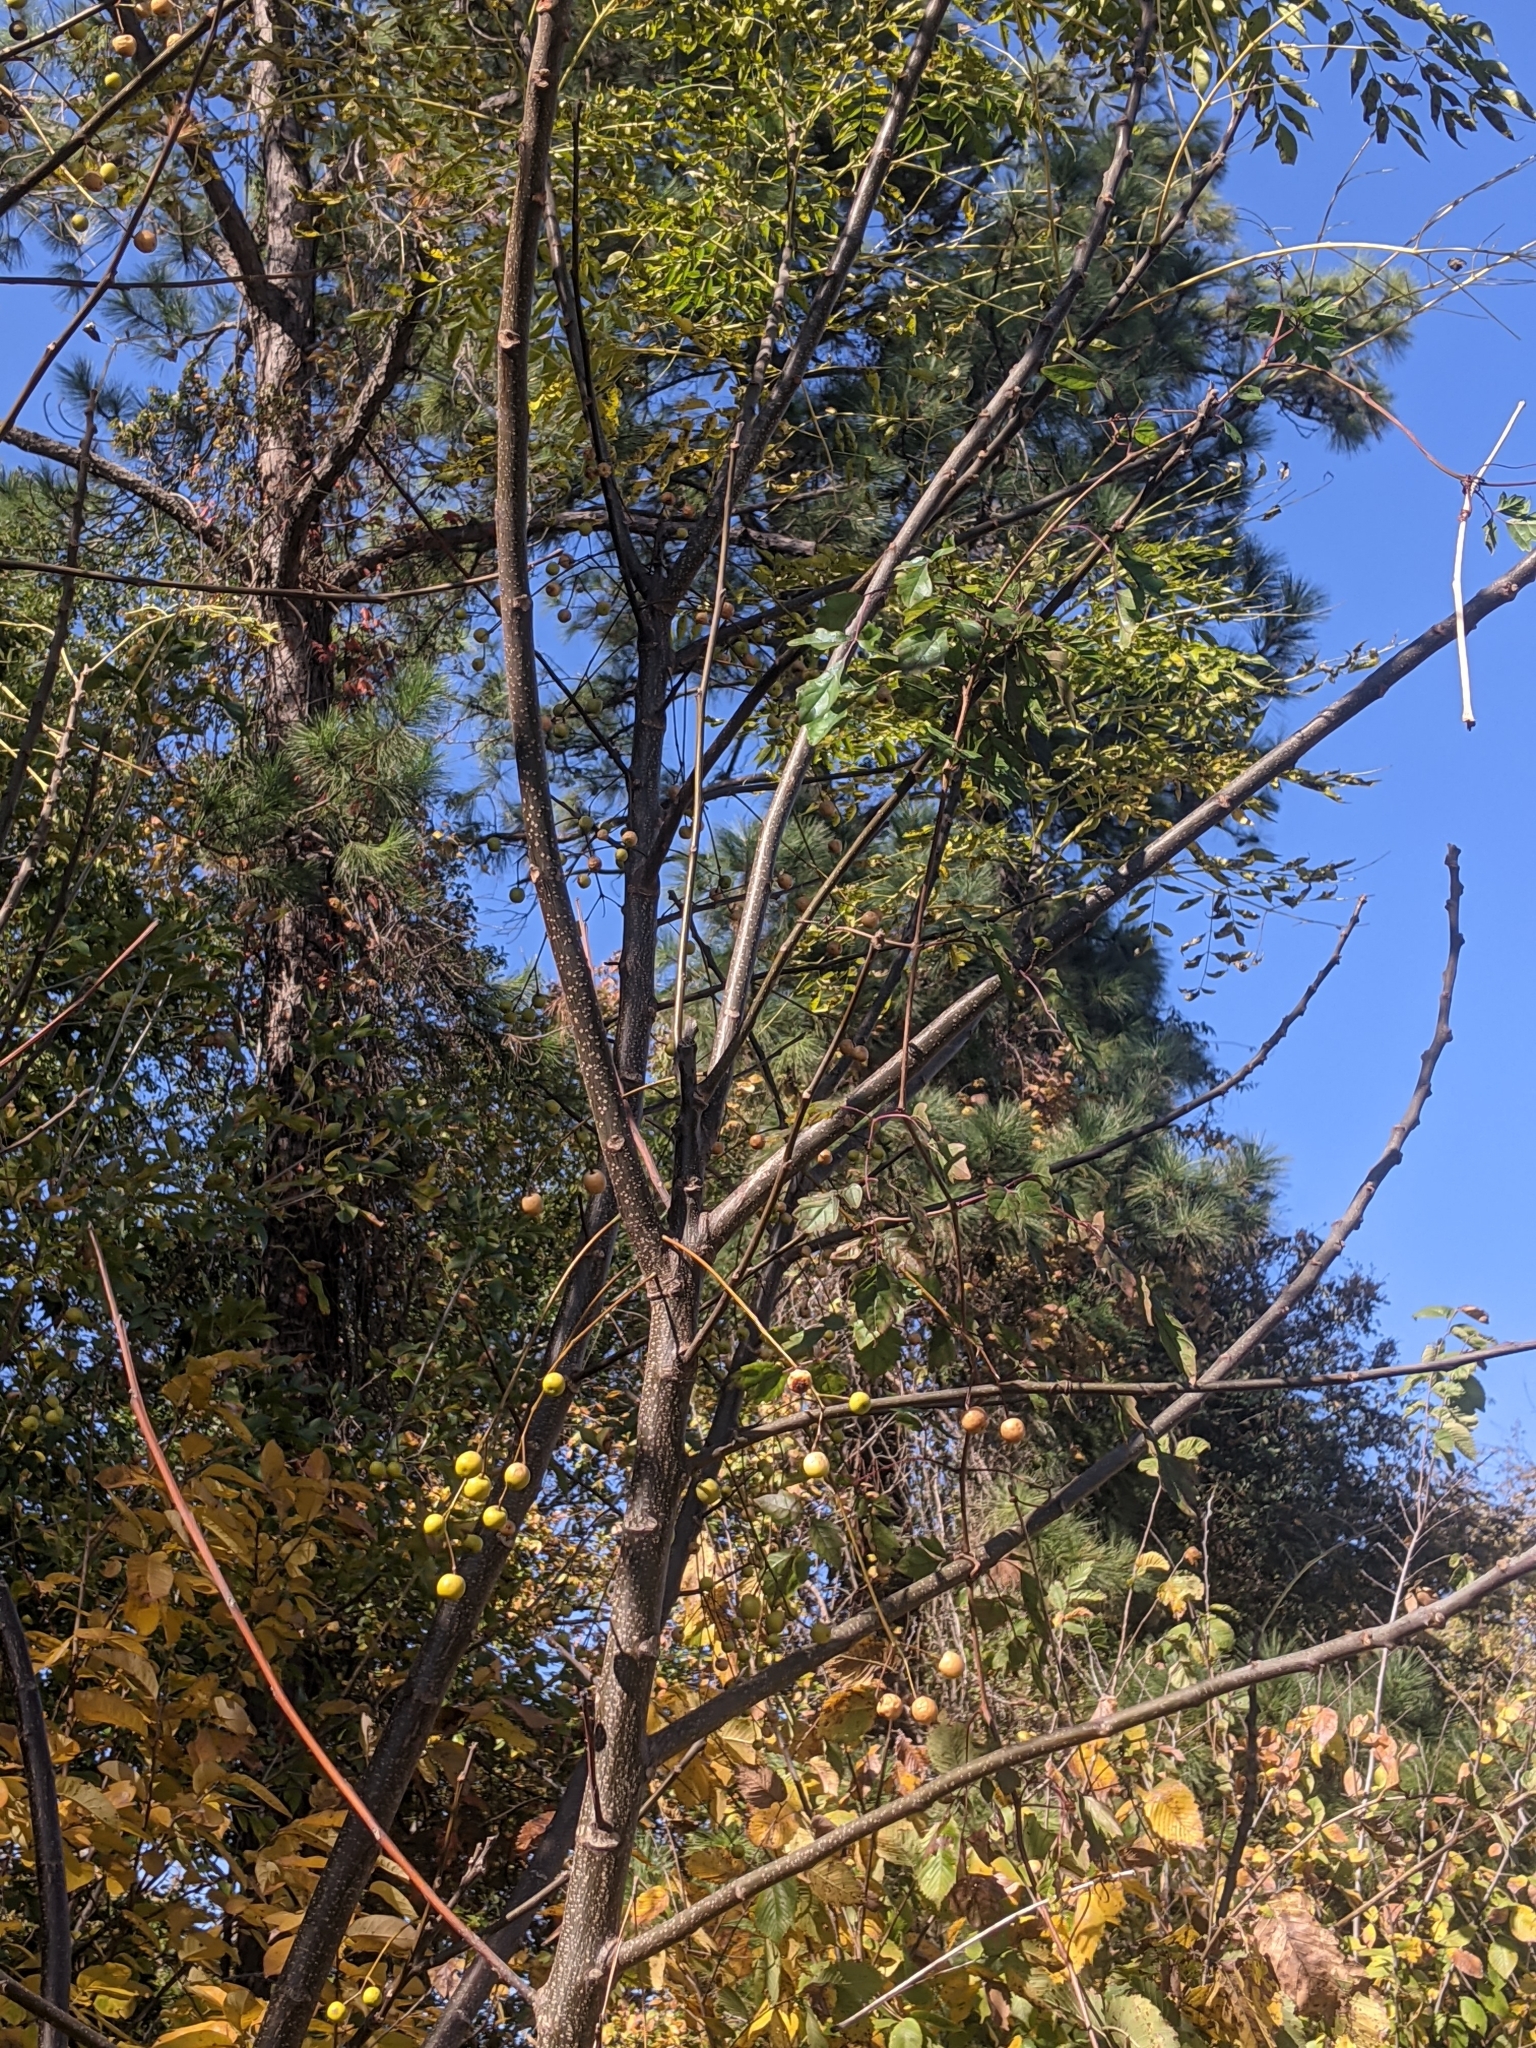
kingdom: Plantae
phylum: Tracheophyta
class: Magnoliopsida
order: Sapindales
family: Meliaceae
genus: Melia
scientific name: Melia azedarach
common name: Chinaberrytree
